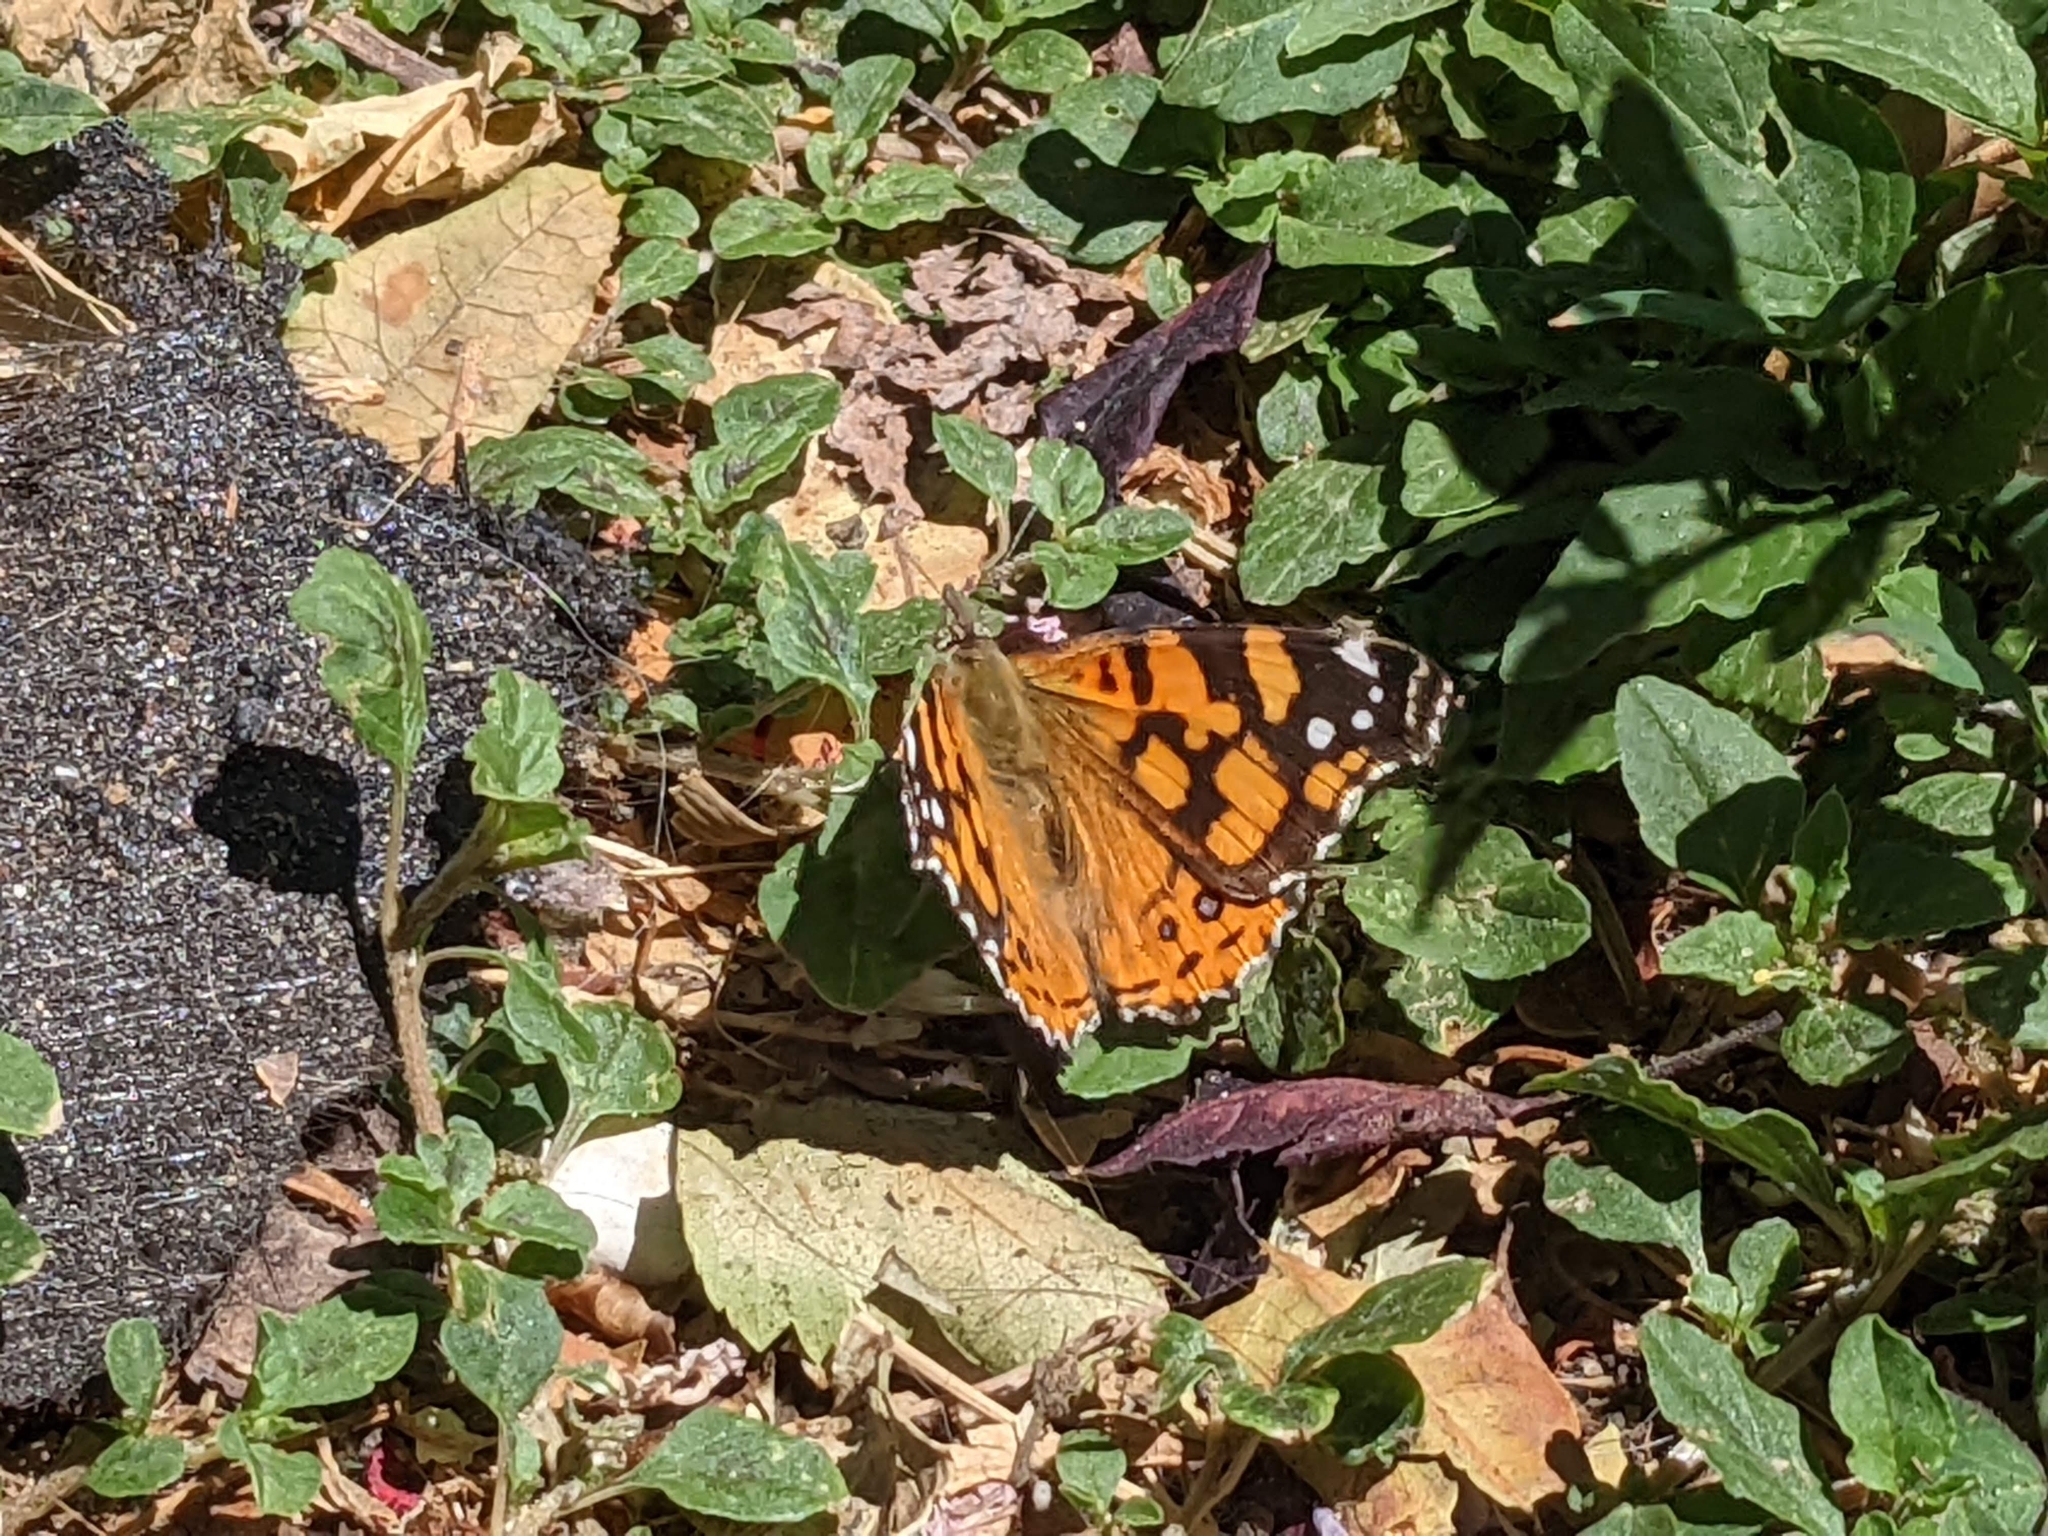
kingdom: Animalia
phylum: Arthropoda
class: Insecta
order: Lepidoptera
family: Nymphalidae
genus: Vanessa
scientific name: Vanessa annabella
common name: West coast lady
